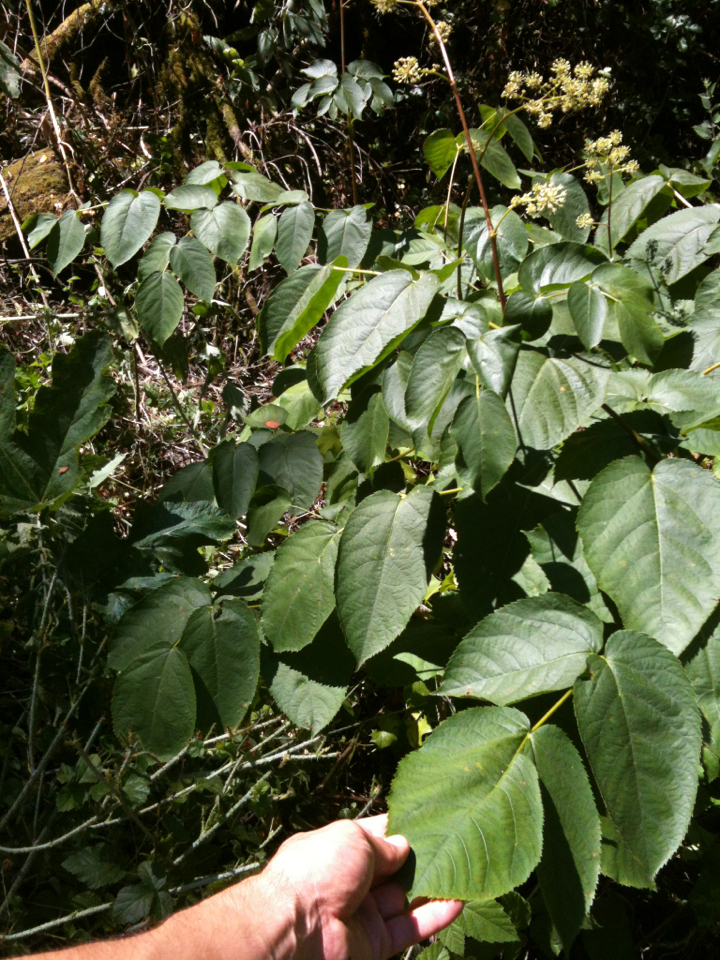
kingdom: Plantae
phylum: Tracheophyta
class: Magnoliopsida
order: Apiales
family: Araliaceae
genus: Aralia
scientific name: Aralia californica
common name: California-ginseng
